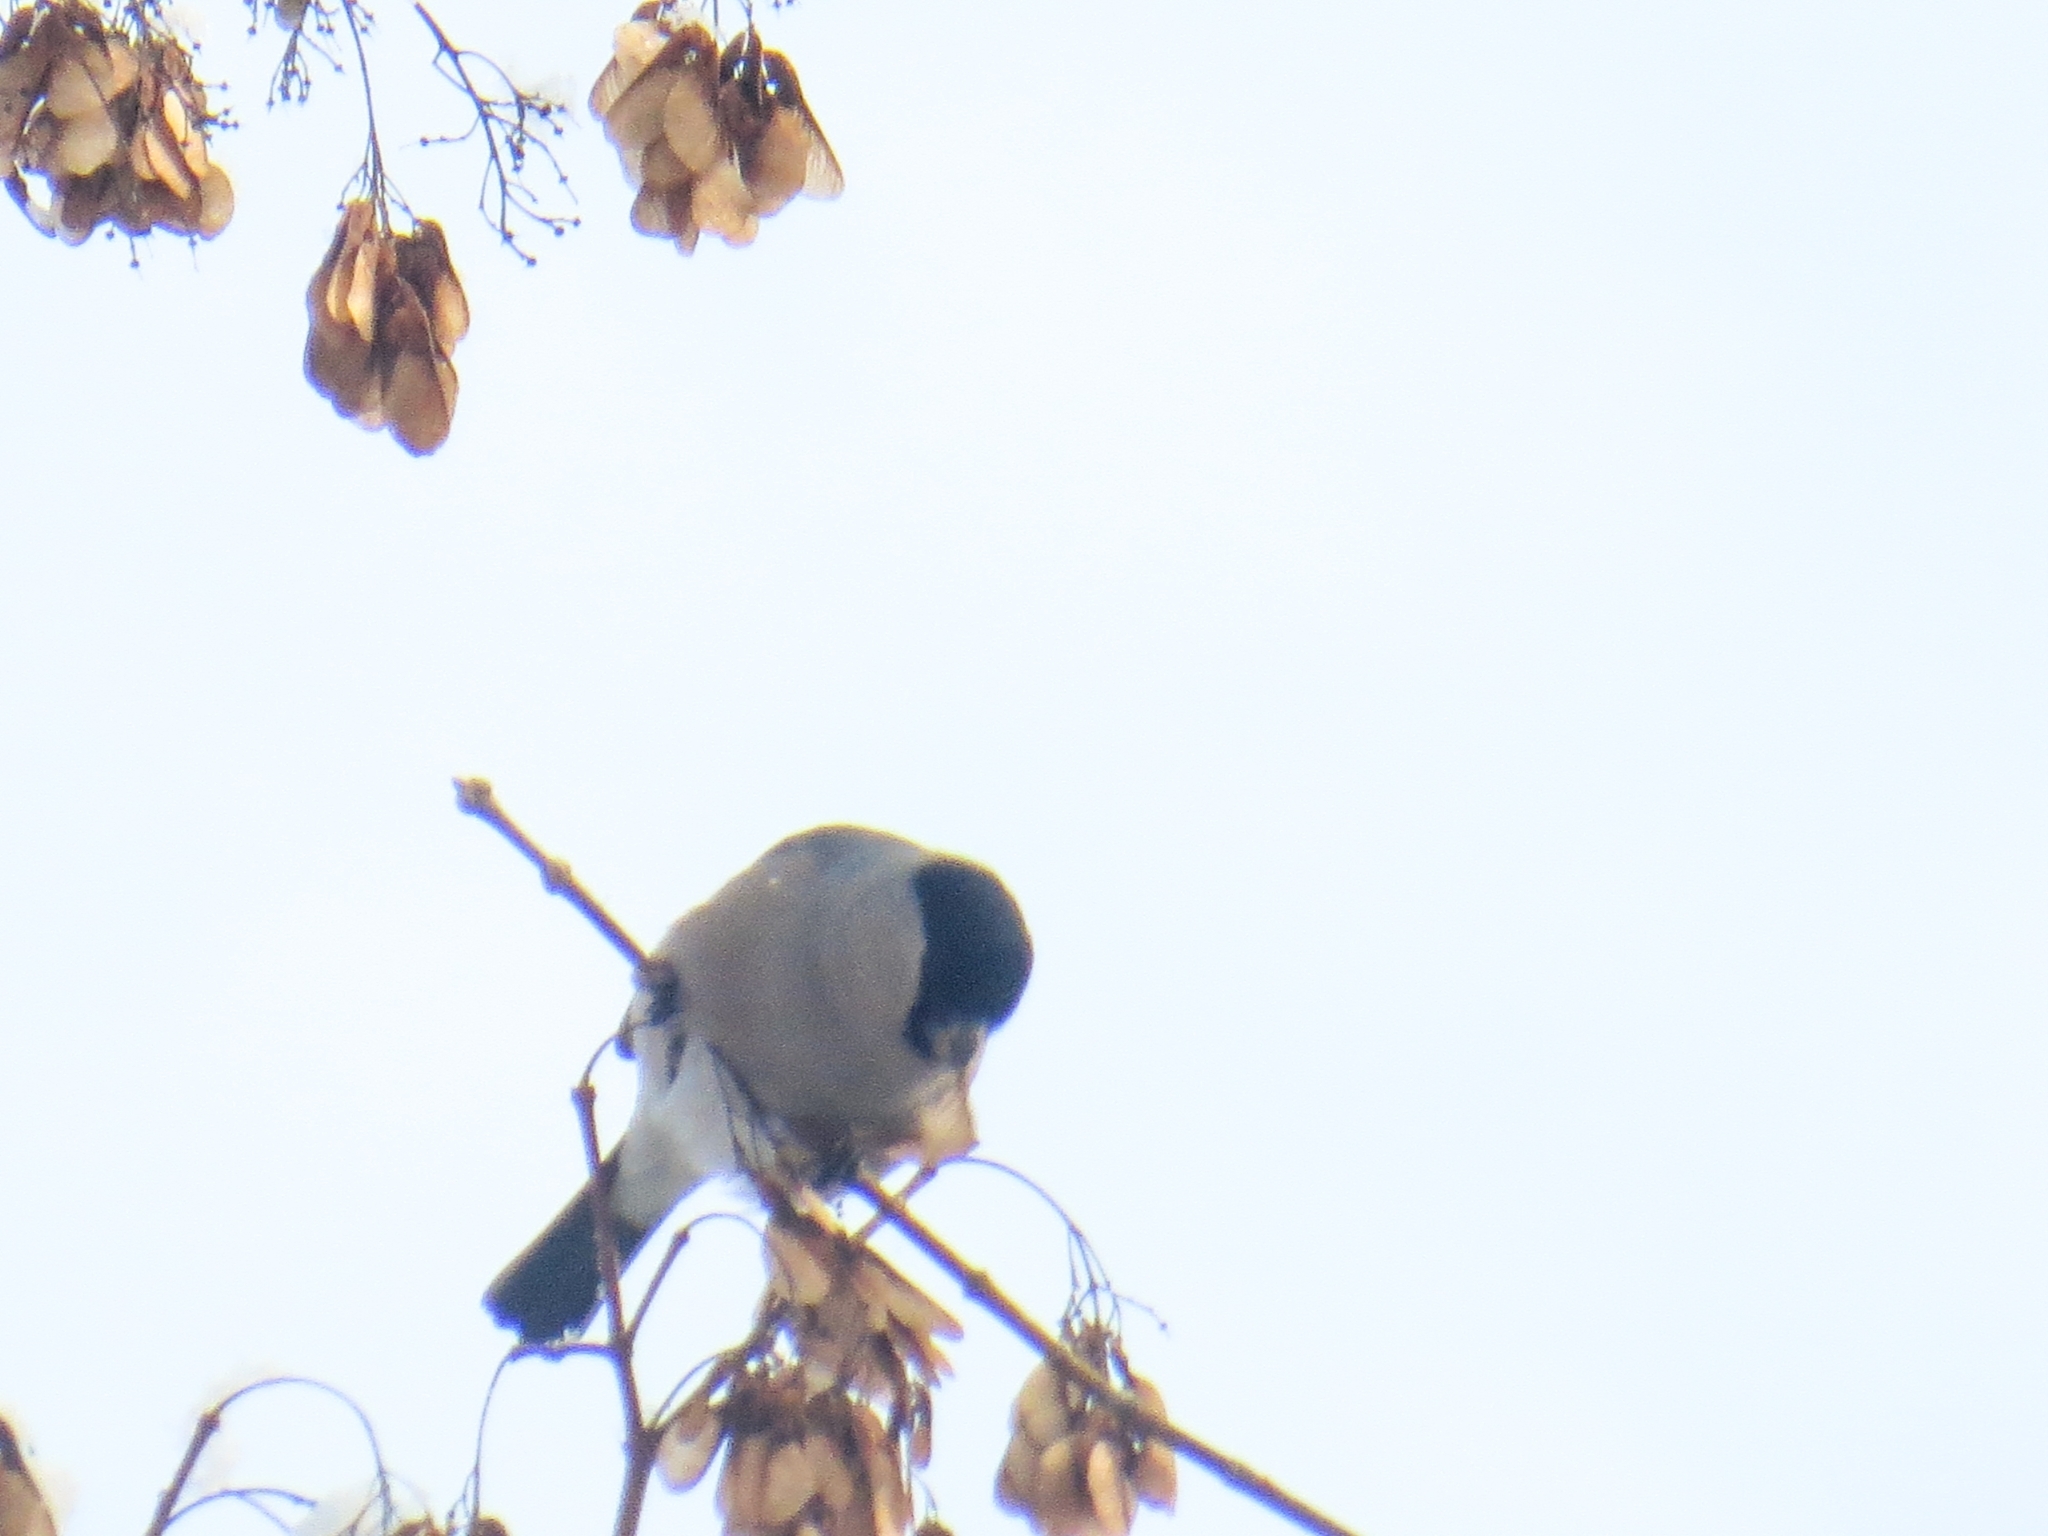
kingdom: Animalia
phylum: Chordata
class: Aves
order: Passeriformes
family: Fringillidae
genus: Pyrrhula
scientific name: Pyrrhula pyrrhula
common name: Eurasian bullfinch
